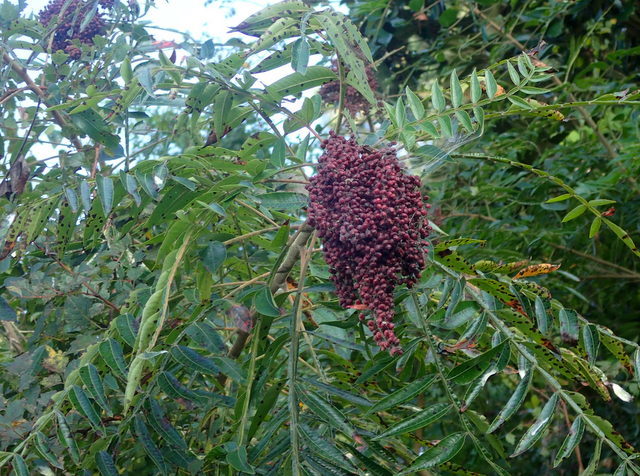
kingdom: Plantae
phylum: Tracheophyta
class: Magnoliopsida
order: Sapindales
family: Anacardiaceae
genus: Rhus
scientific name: Rhus copallina
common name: Shining sumac
